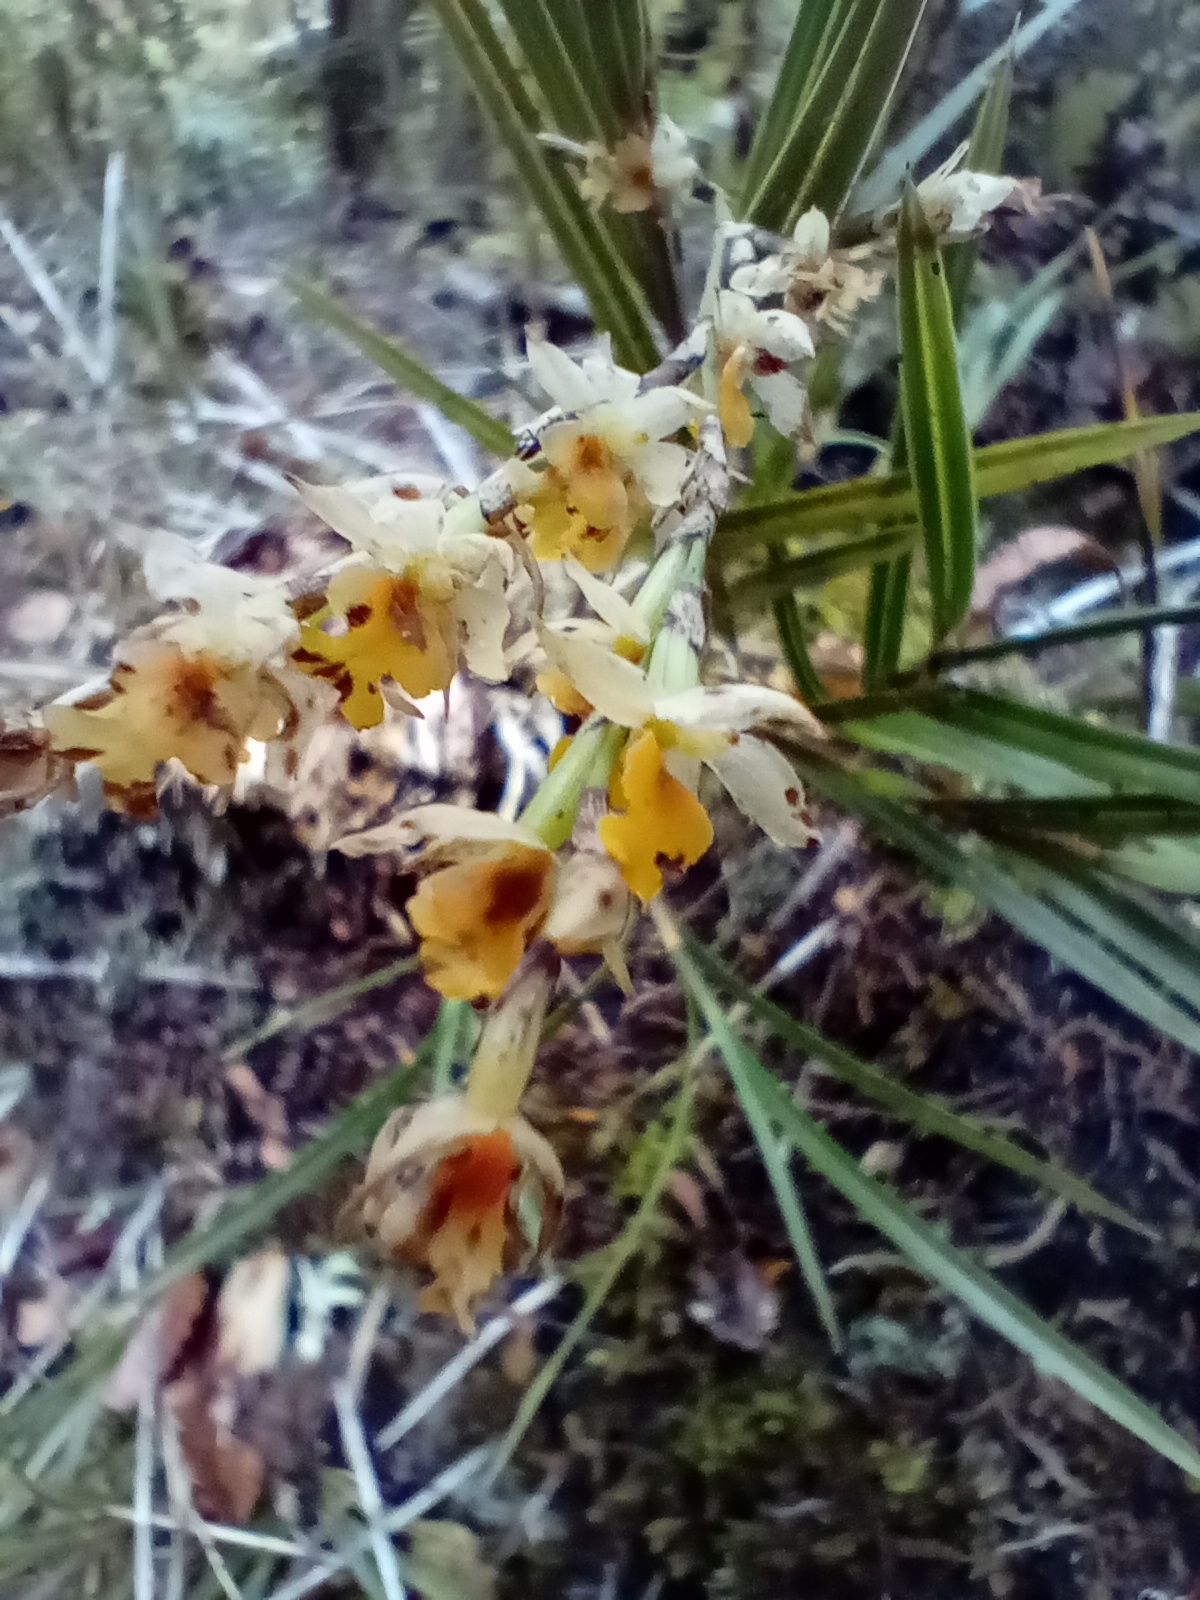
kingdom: Plantae
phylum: Tracheophyta
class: Liliopsida
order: Asparagales
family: Orchidaceae
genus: Earina
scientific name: Earina mucronata
